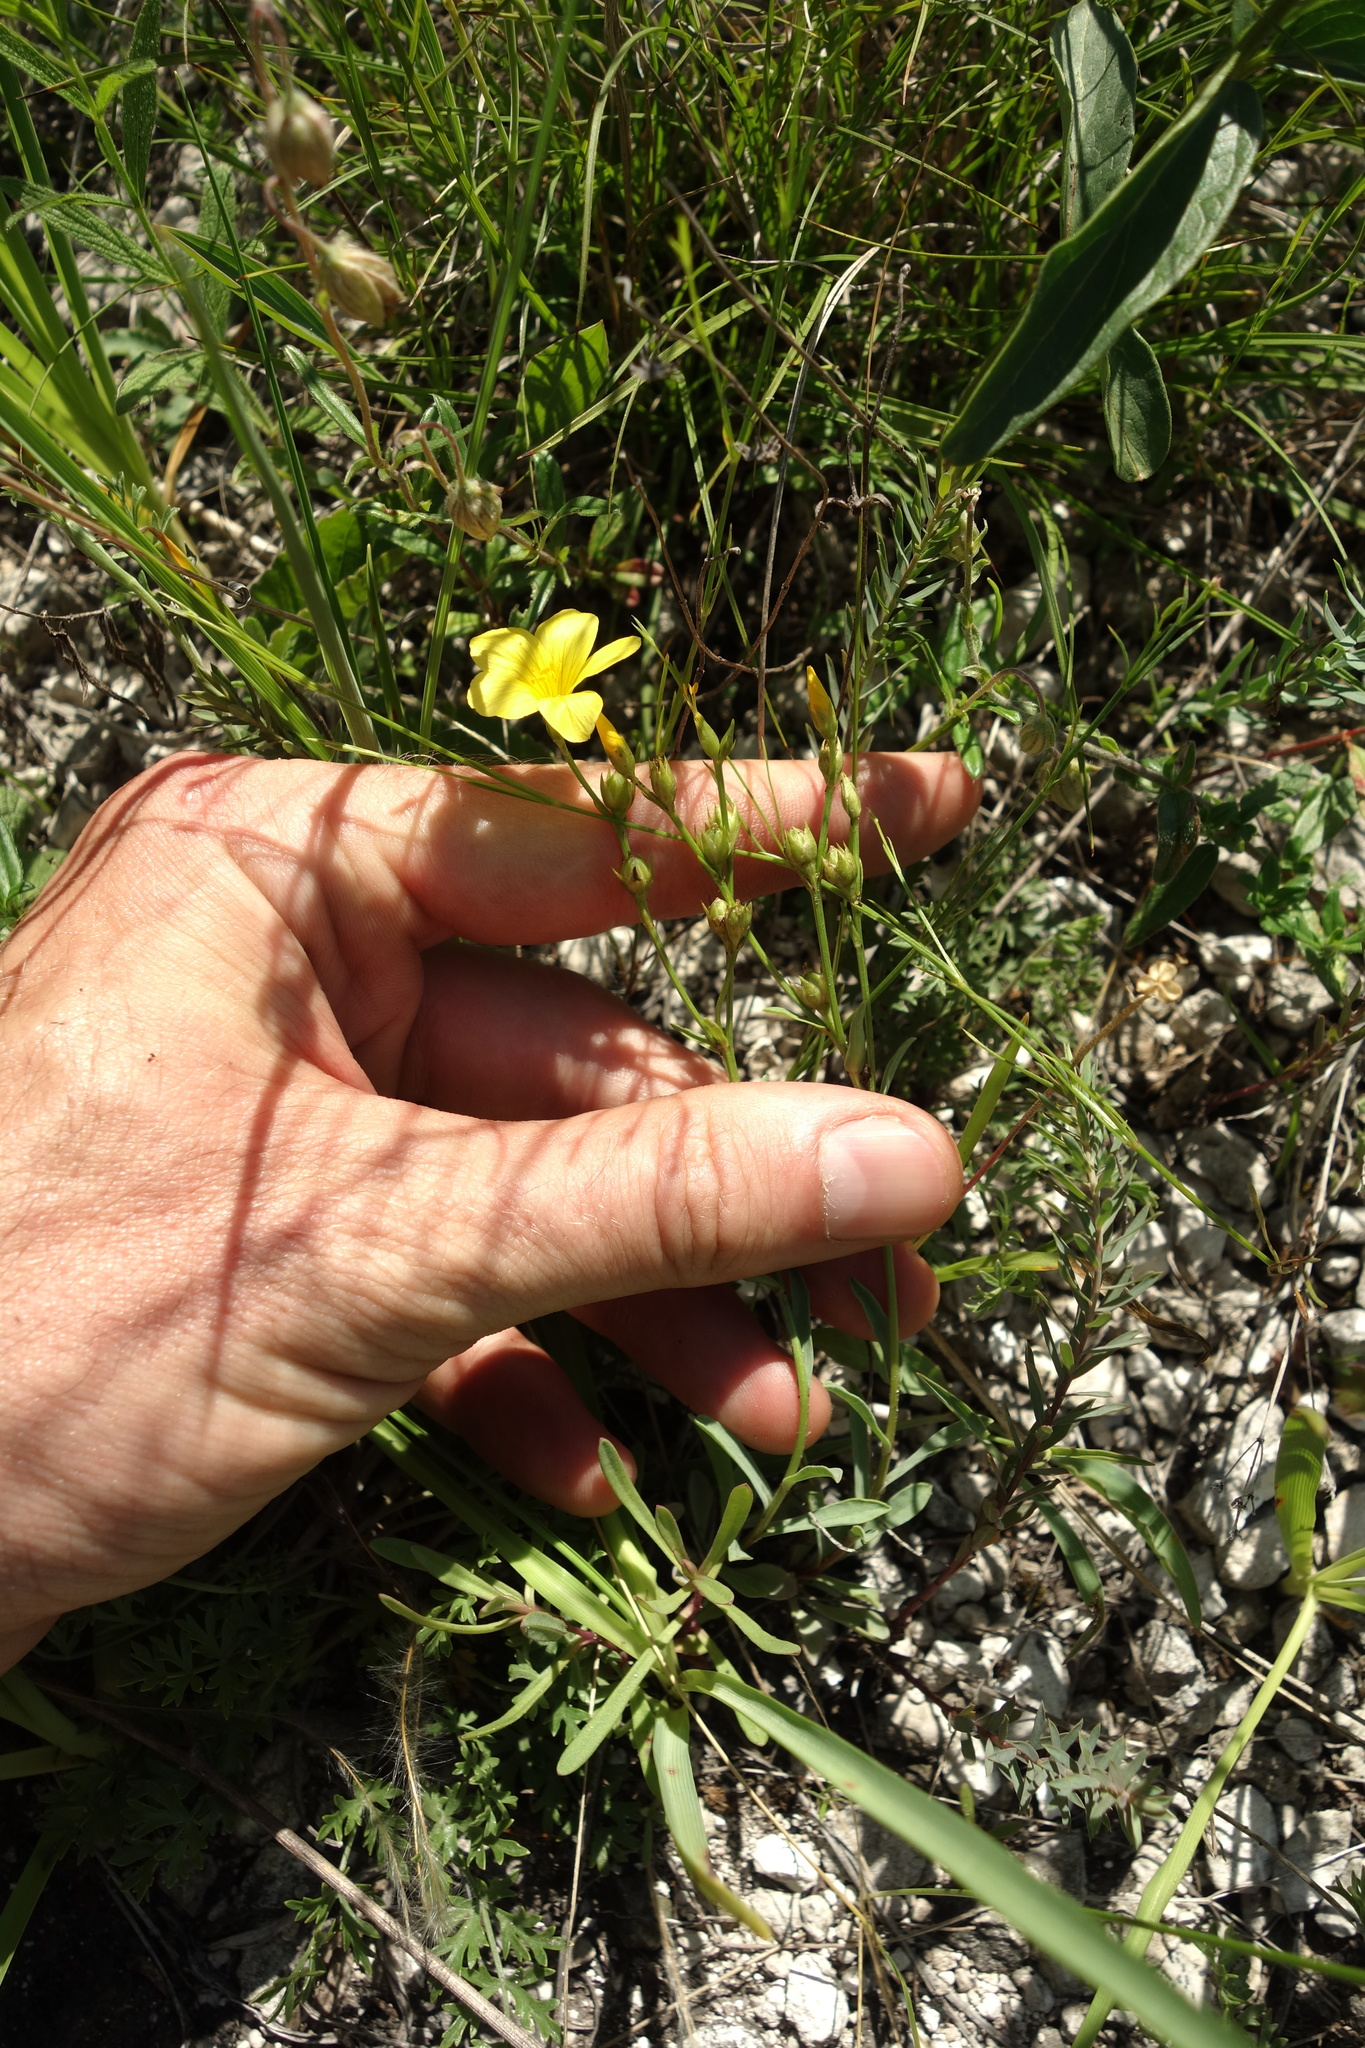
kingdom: Plantae
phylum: Tracheophyta
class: Magnoliopsida
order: Malpighiales
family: Linaceae
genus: Linum
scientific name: Linum ucranicum
